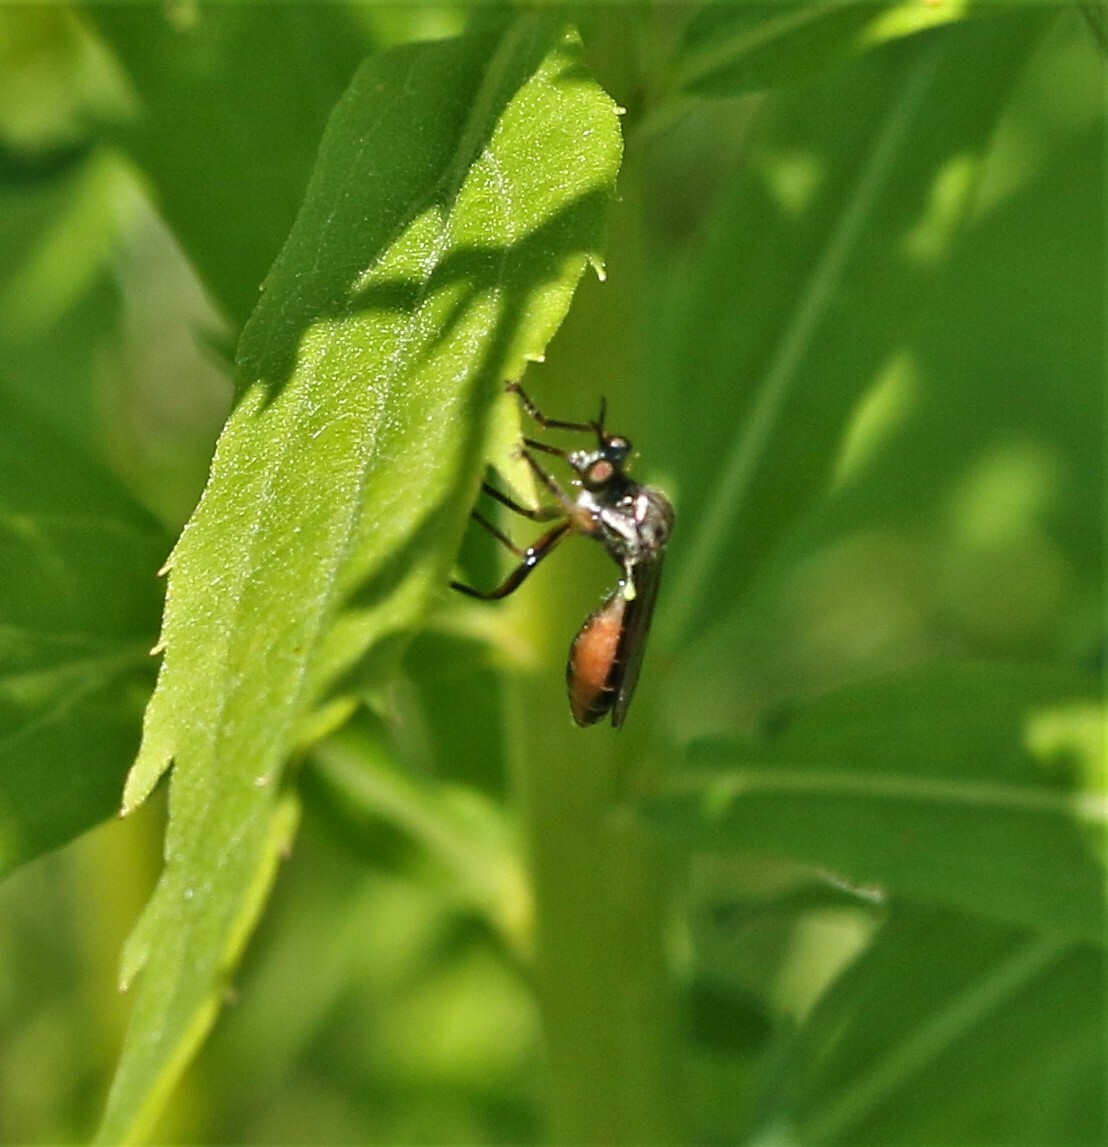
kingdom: Animalia
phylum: Arthropoda
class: Insecta
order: Diptera
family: Asilidae
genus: Dioctria
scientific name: Dioctria hyalipennis
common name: Stripe-legged robberfly
